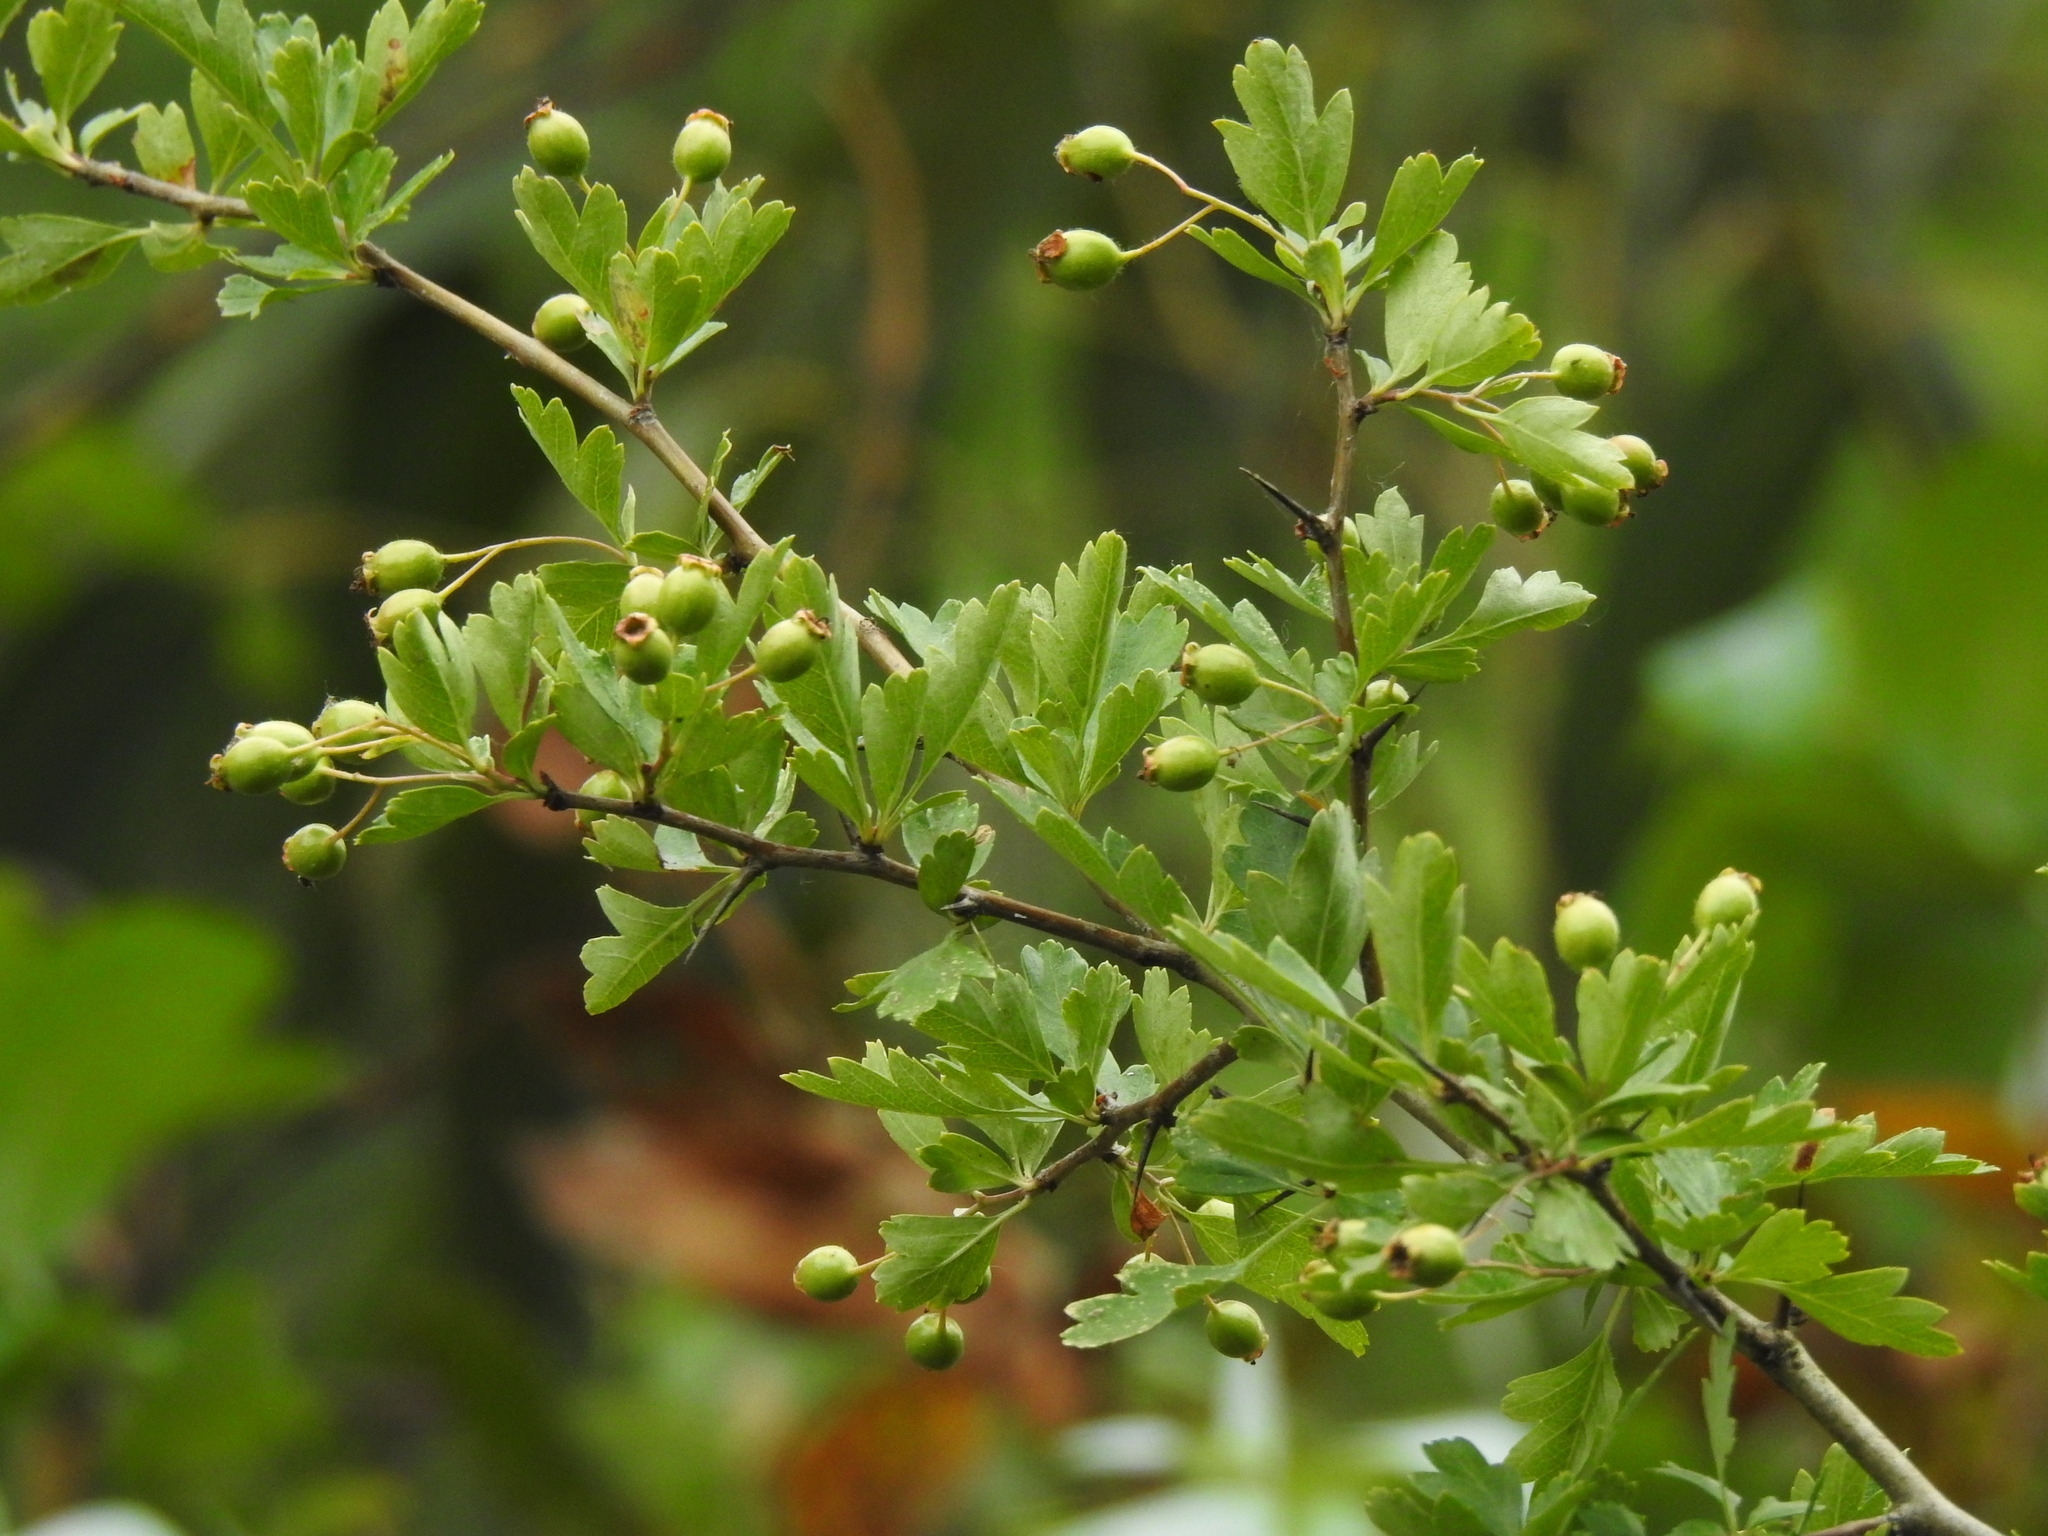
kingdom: Plantae
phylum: Tracheophyta
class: Magnoliopsida
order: Rosales
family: Rosaceae
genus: Crataegus
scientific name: Crataegus monogyna
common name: Hawthorn
